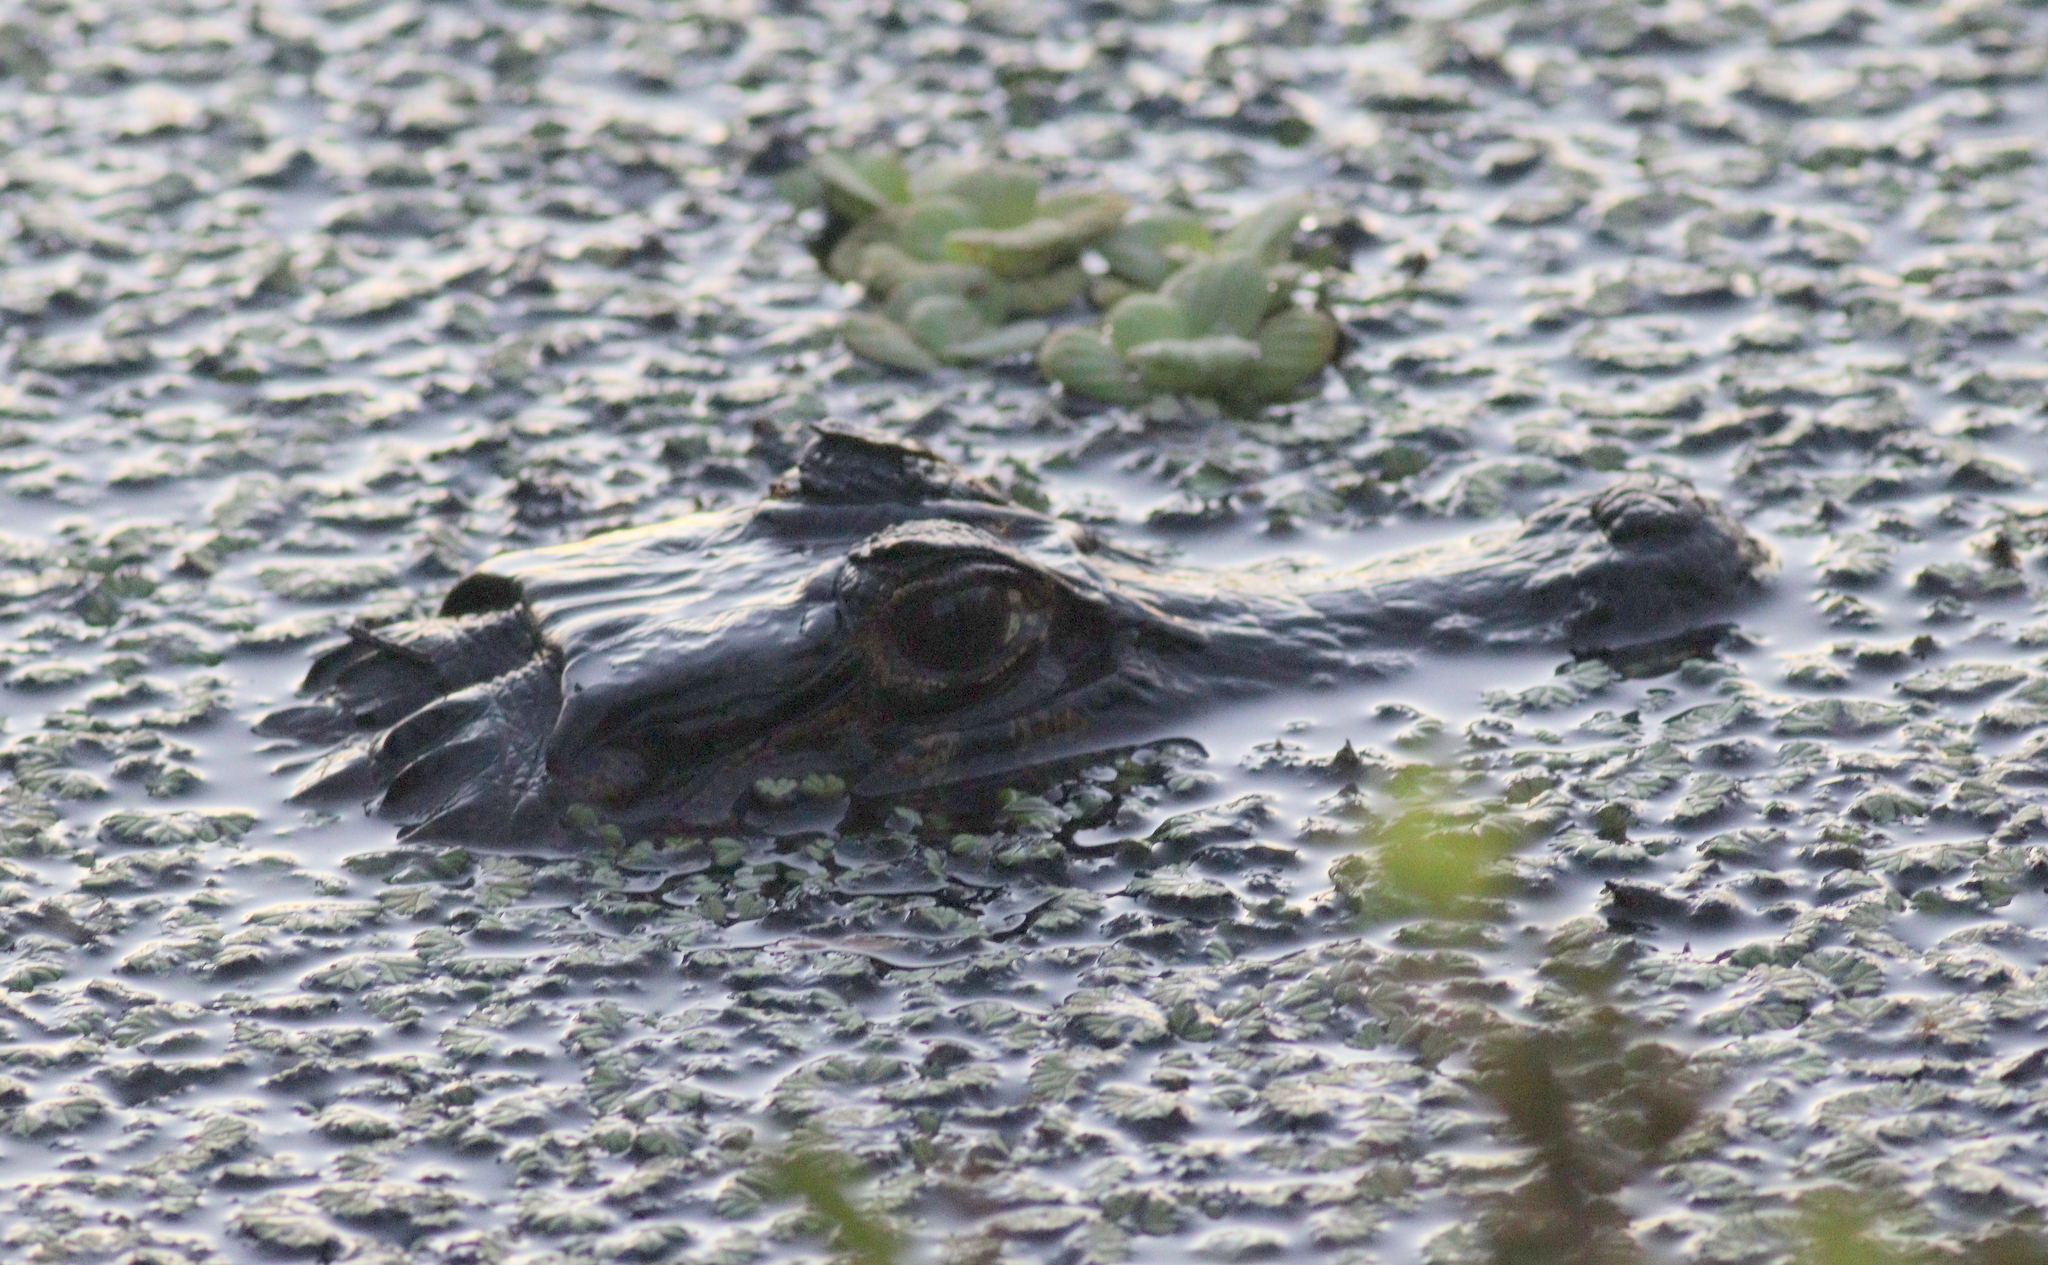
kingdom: Animalia
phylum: Chordata
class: Crocodylia
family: Alligatoridae
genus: Caiman
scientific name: Caiman yacare
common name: Yacare caiman
